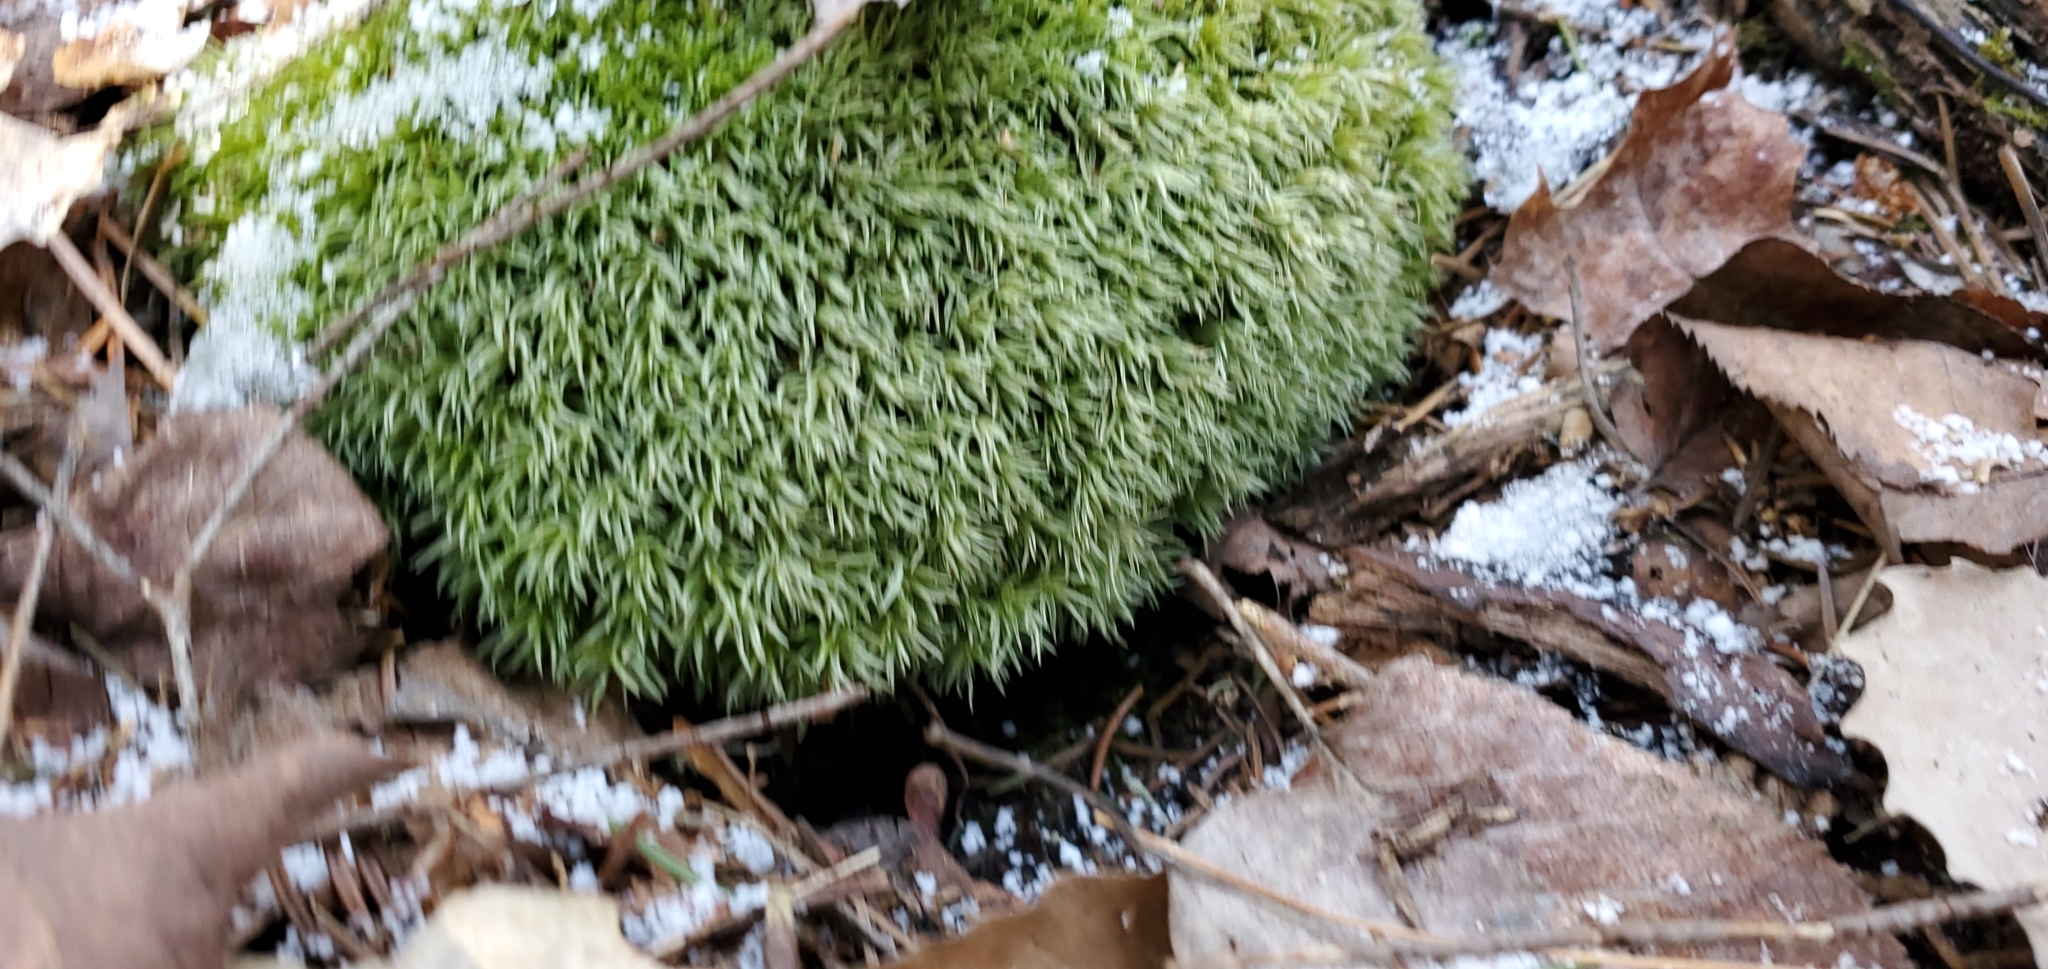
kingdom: Plantae
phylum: Bryophyta
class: Bryopsida
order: Dicranales
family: Leucobryaceae
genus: Leucobryum
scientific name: Leucobryum glaucum
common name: Large white-moss
